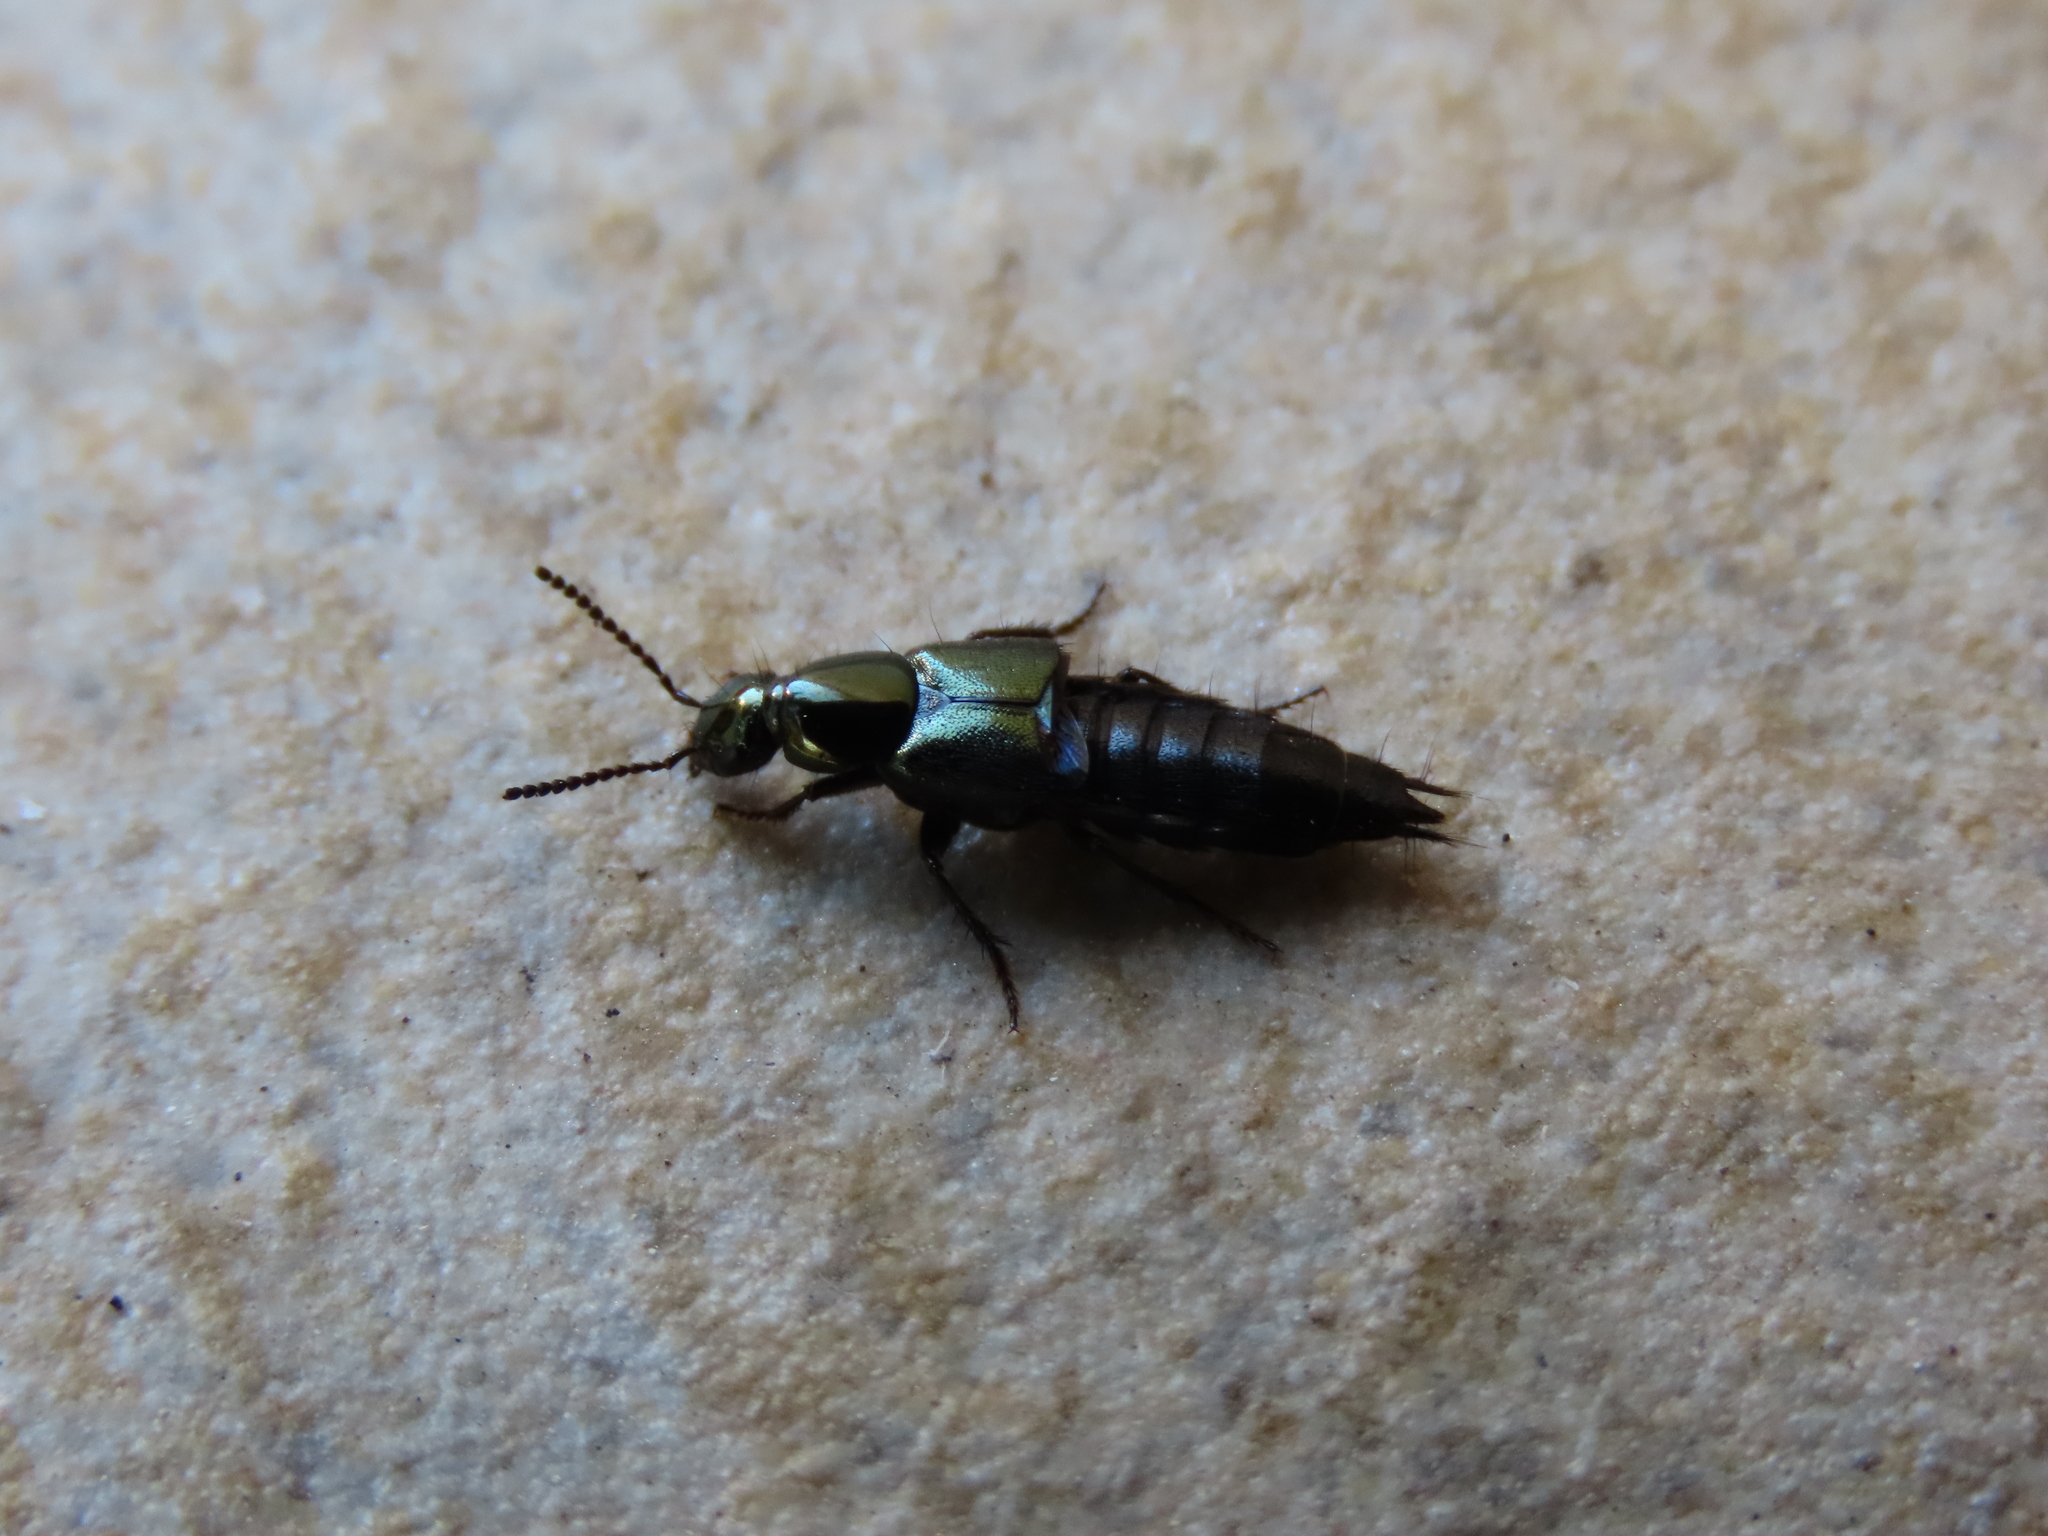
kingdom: Animalia
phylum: Arthropoda
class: Insecta
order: Coleoptera
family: Staphylinidae
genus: Philonthus
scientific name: Philonthus laminatus
